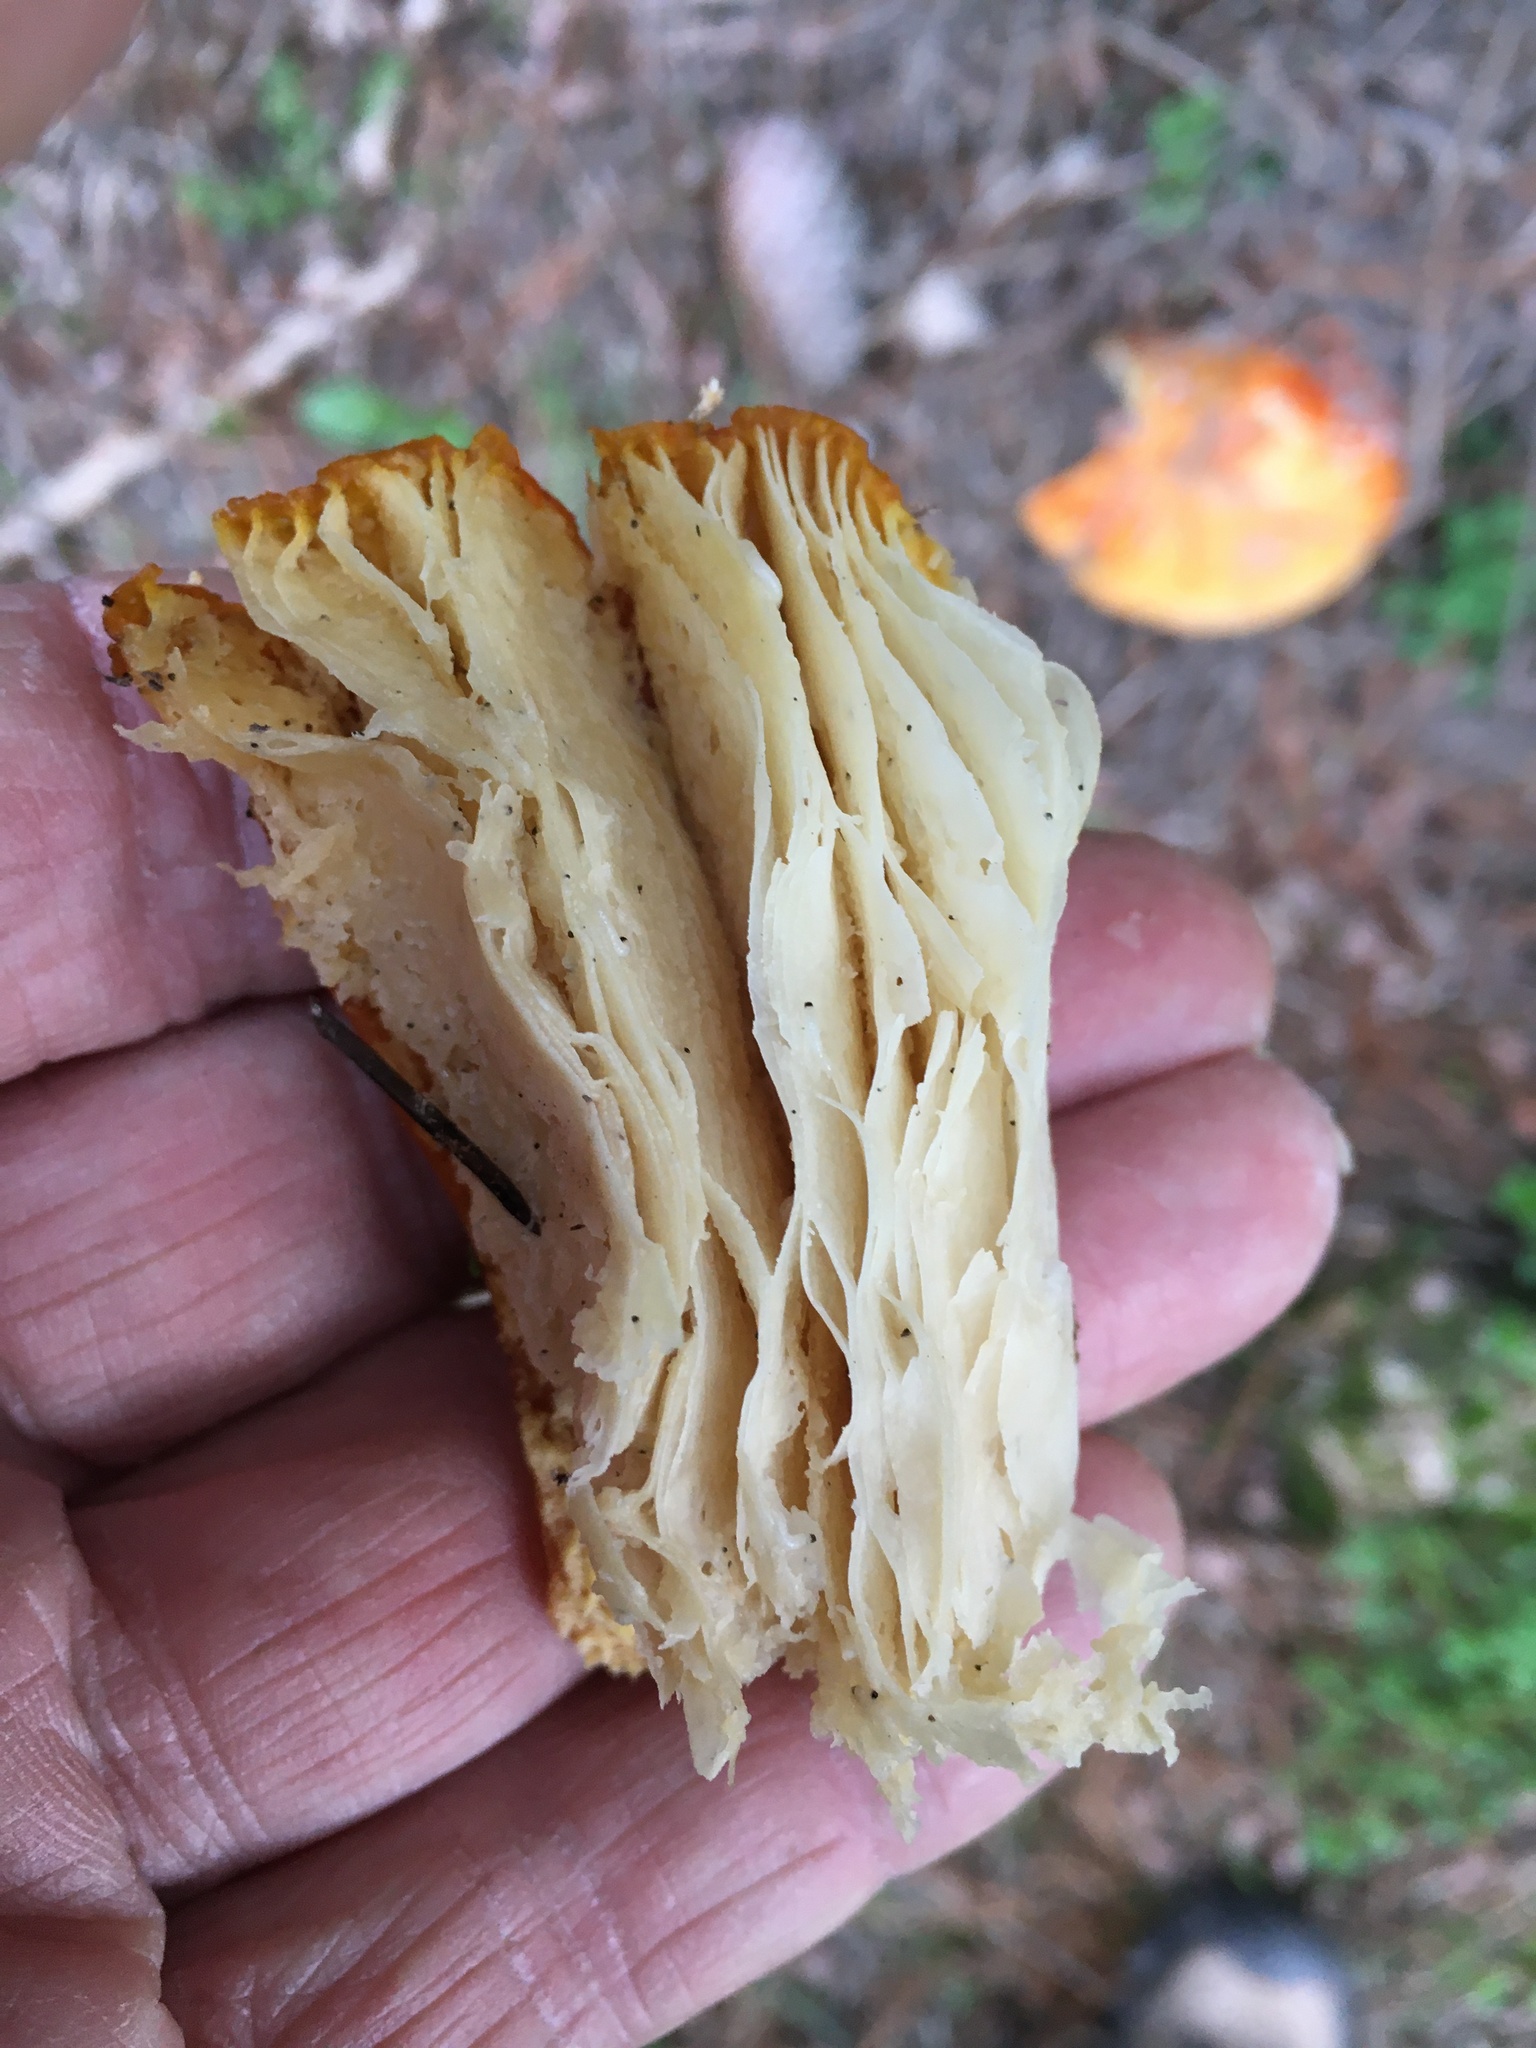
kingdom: Fungi
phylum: Basidiomycota
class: Agaricomycetes
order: Agaricales
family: Amanitaceae
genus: Amanita
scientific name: Amanita muscaria
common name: Fly agaric
